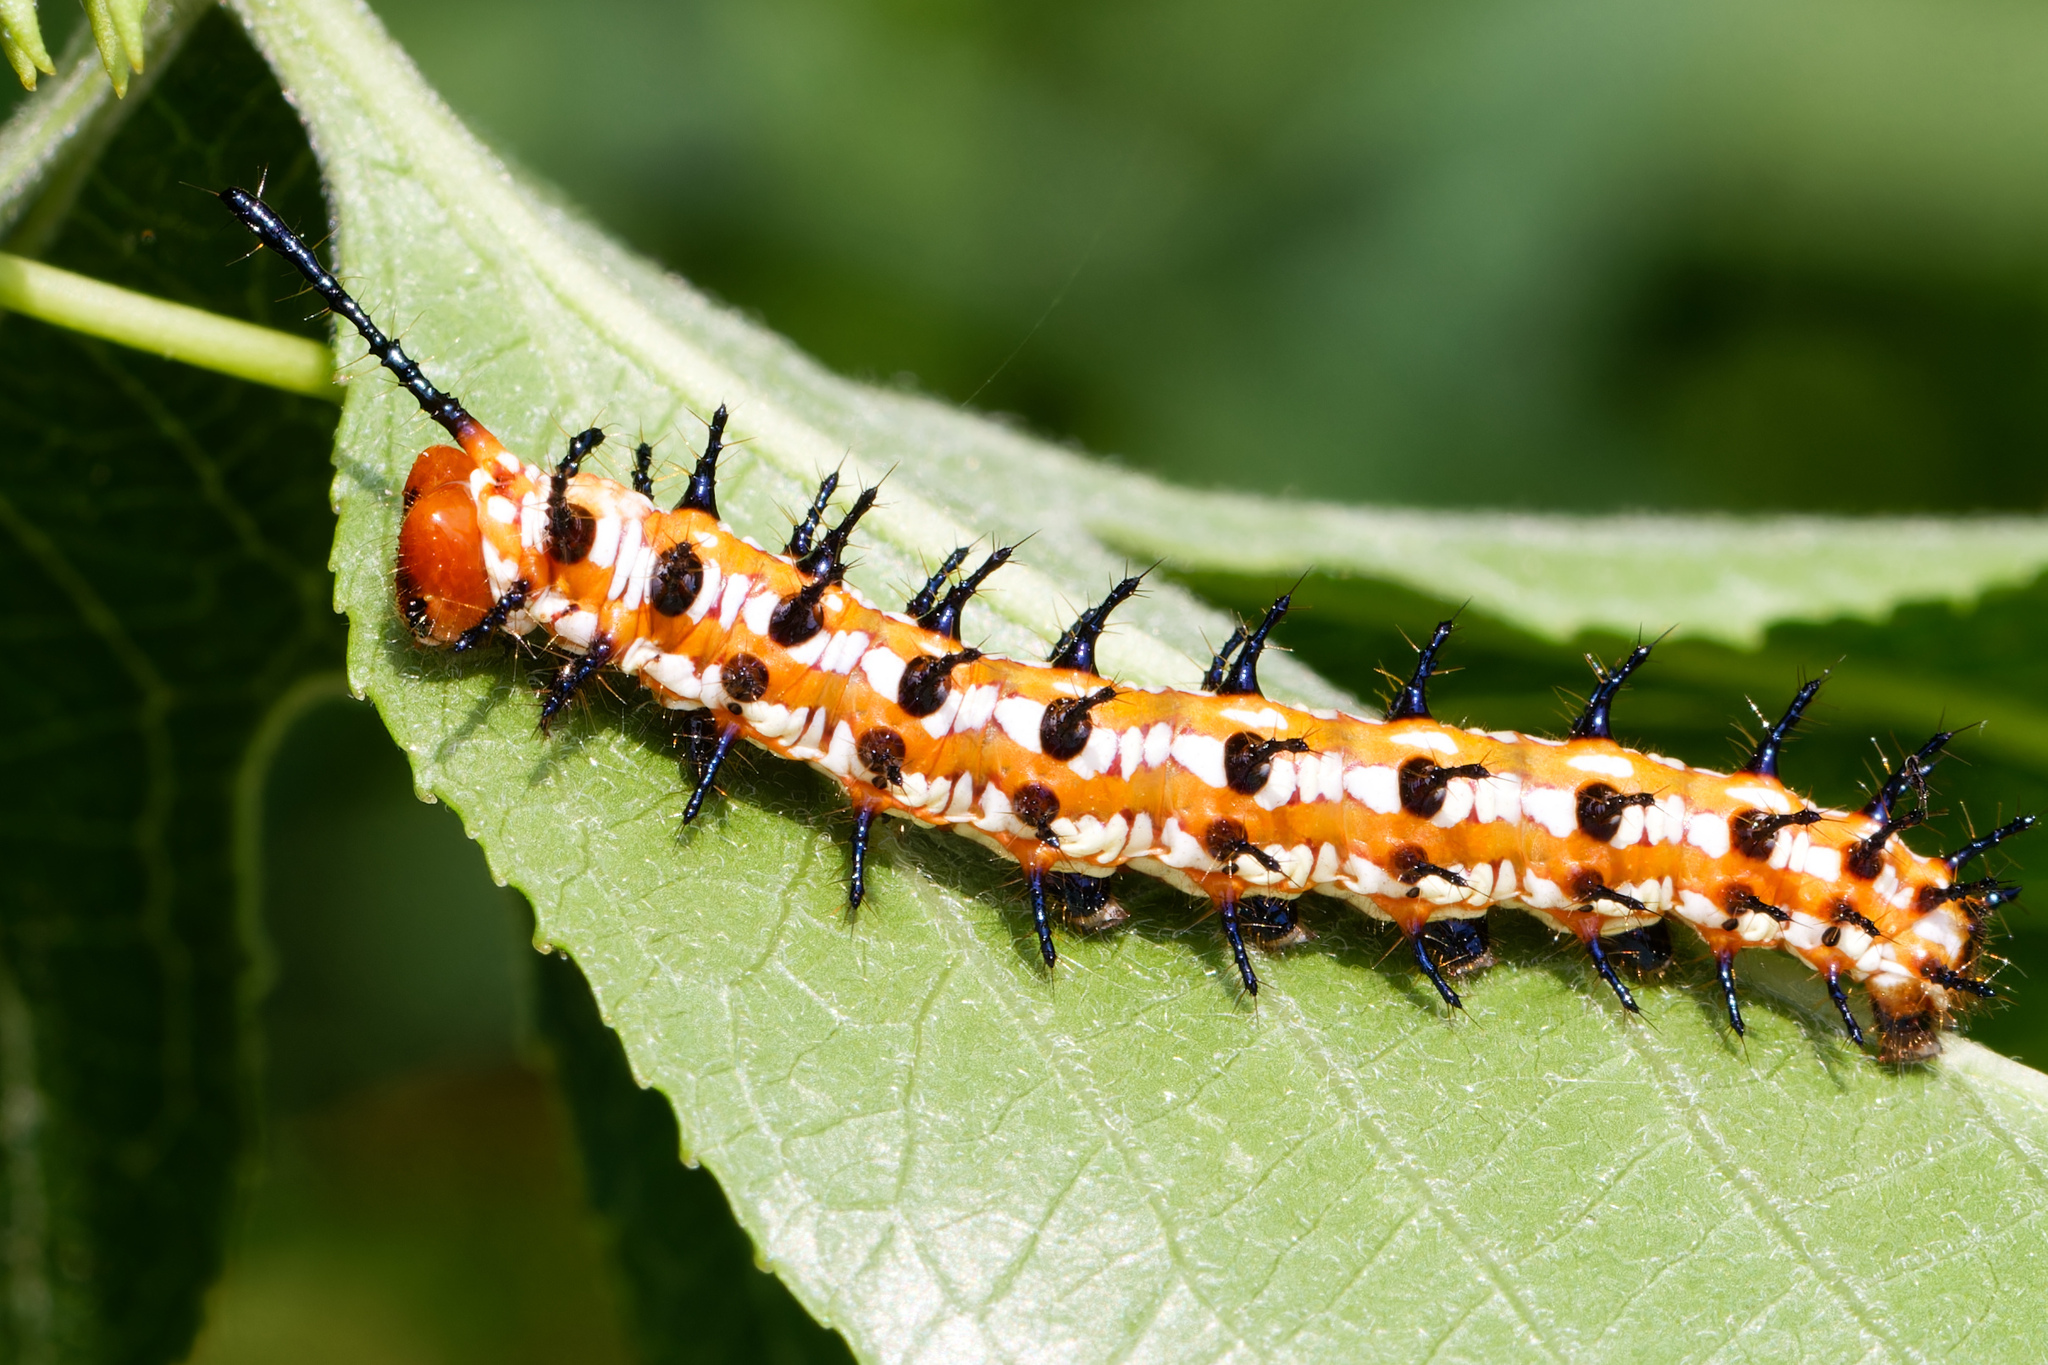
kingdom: Animalia
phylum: Arthropoda
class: Insecta
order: Lepidoptera
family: Nymphalidae
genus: Euptoieta
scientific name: Euptoieta claudia
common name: Variegated fritillary
